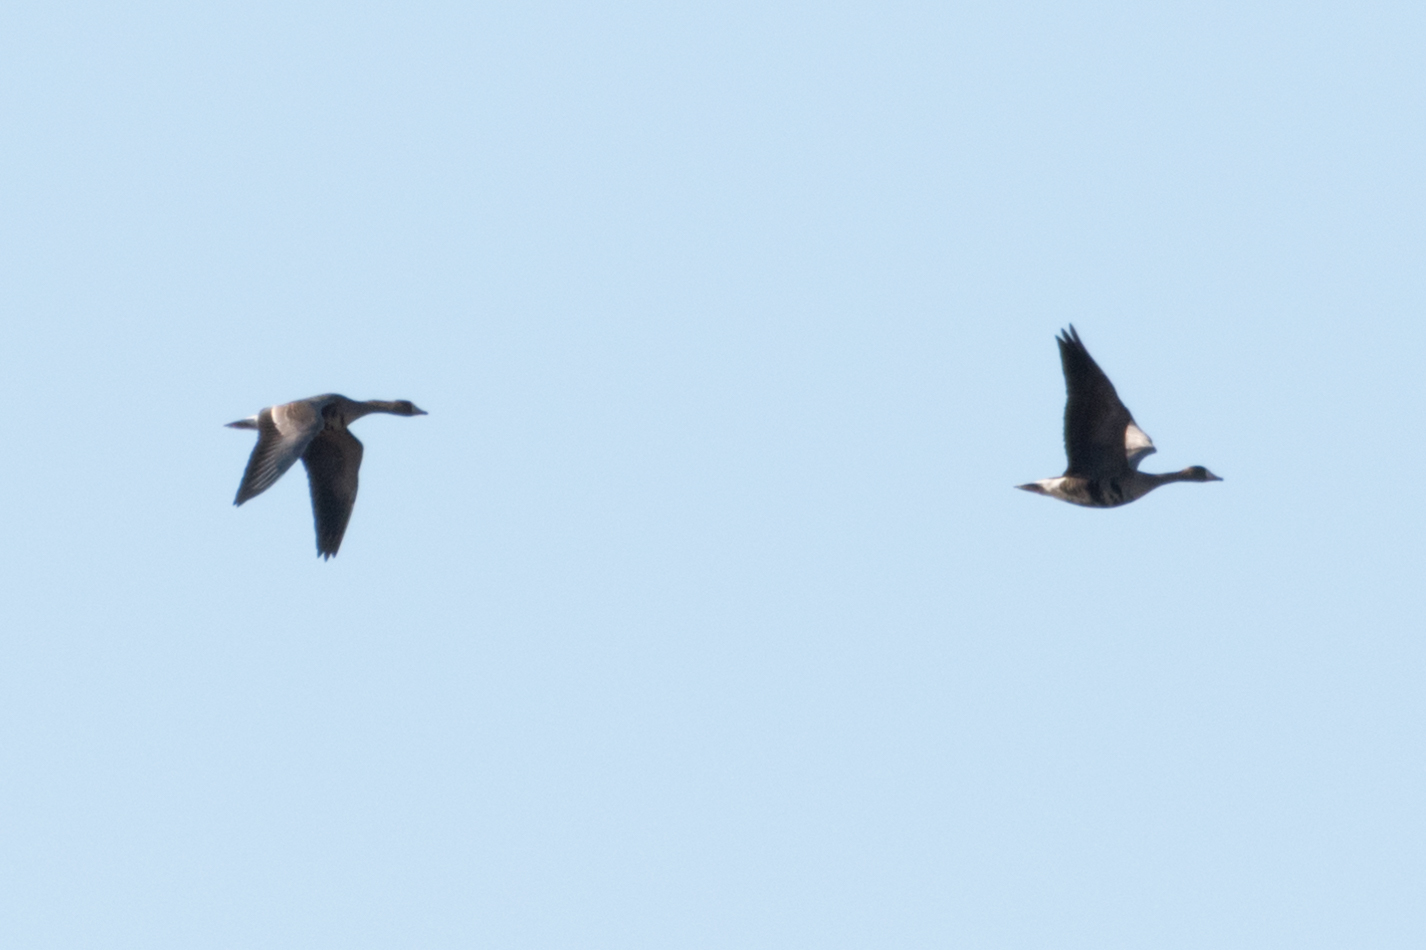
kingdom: Animalia
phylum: Chordata
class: Aves
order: Anseriformes
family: Anatidae
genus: Anser
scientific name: Anser albifrons
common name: Greater white-fronted goose
